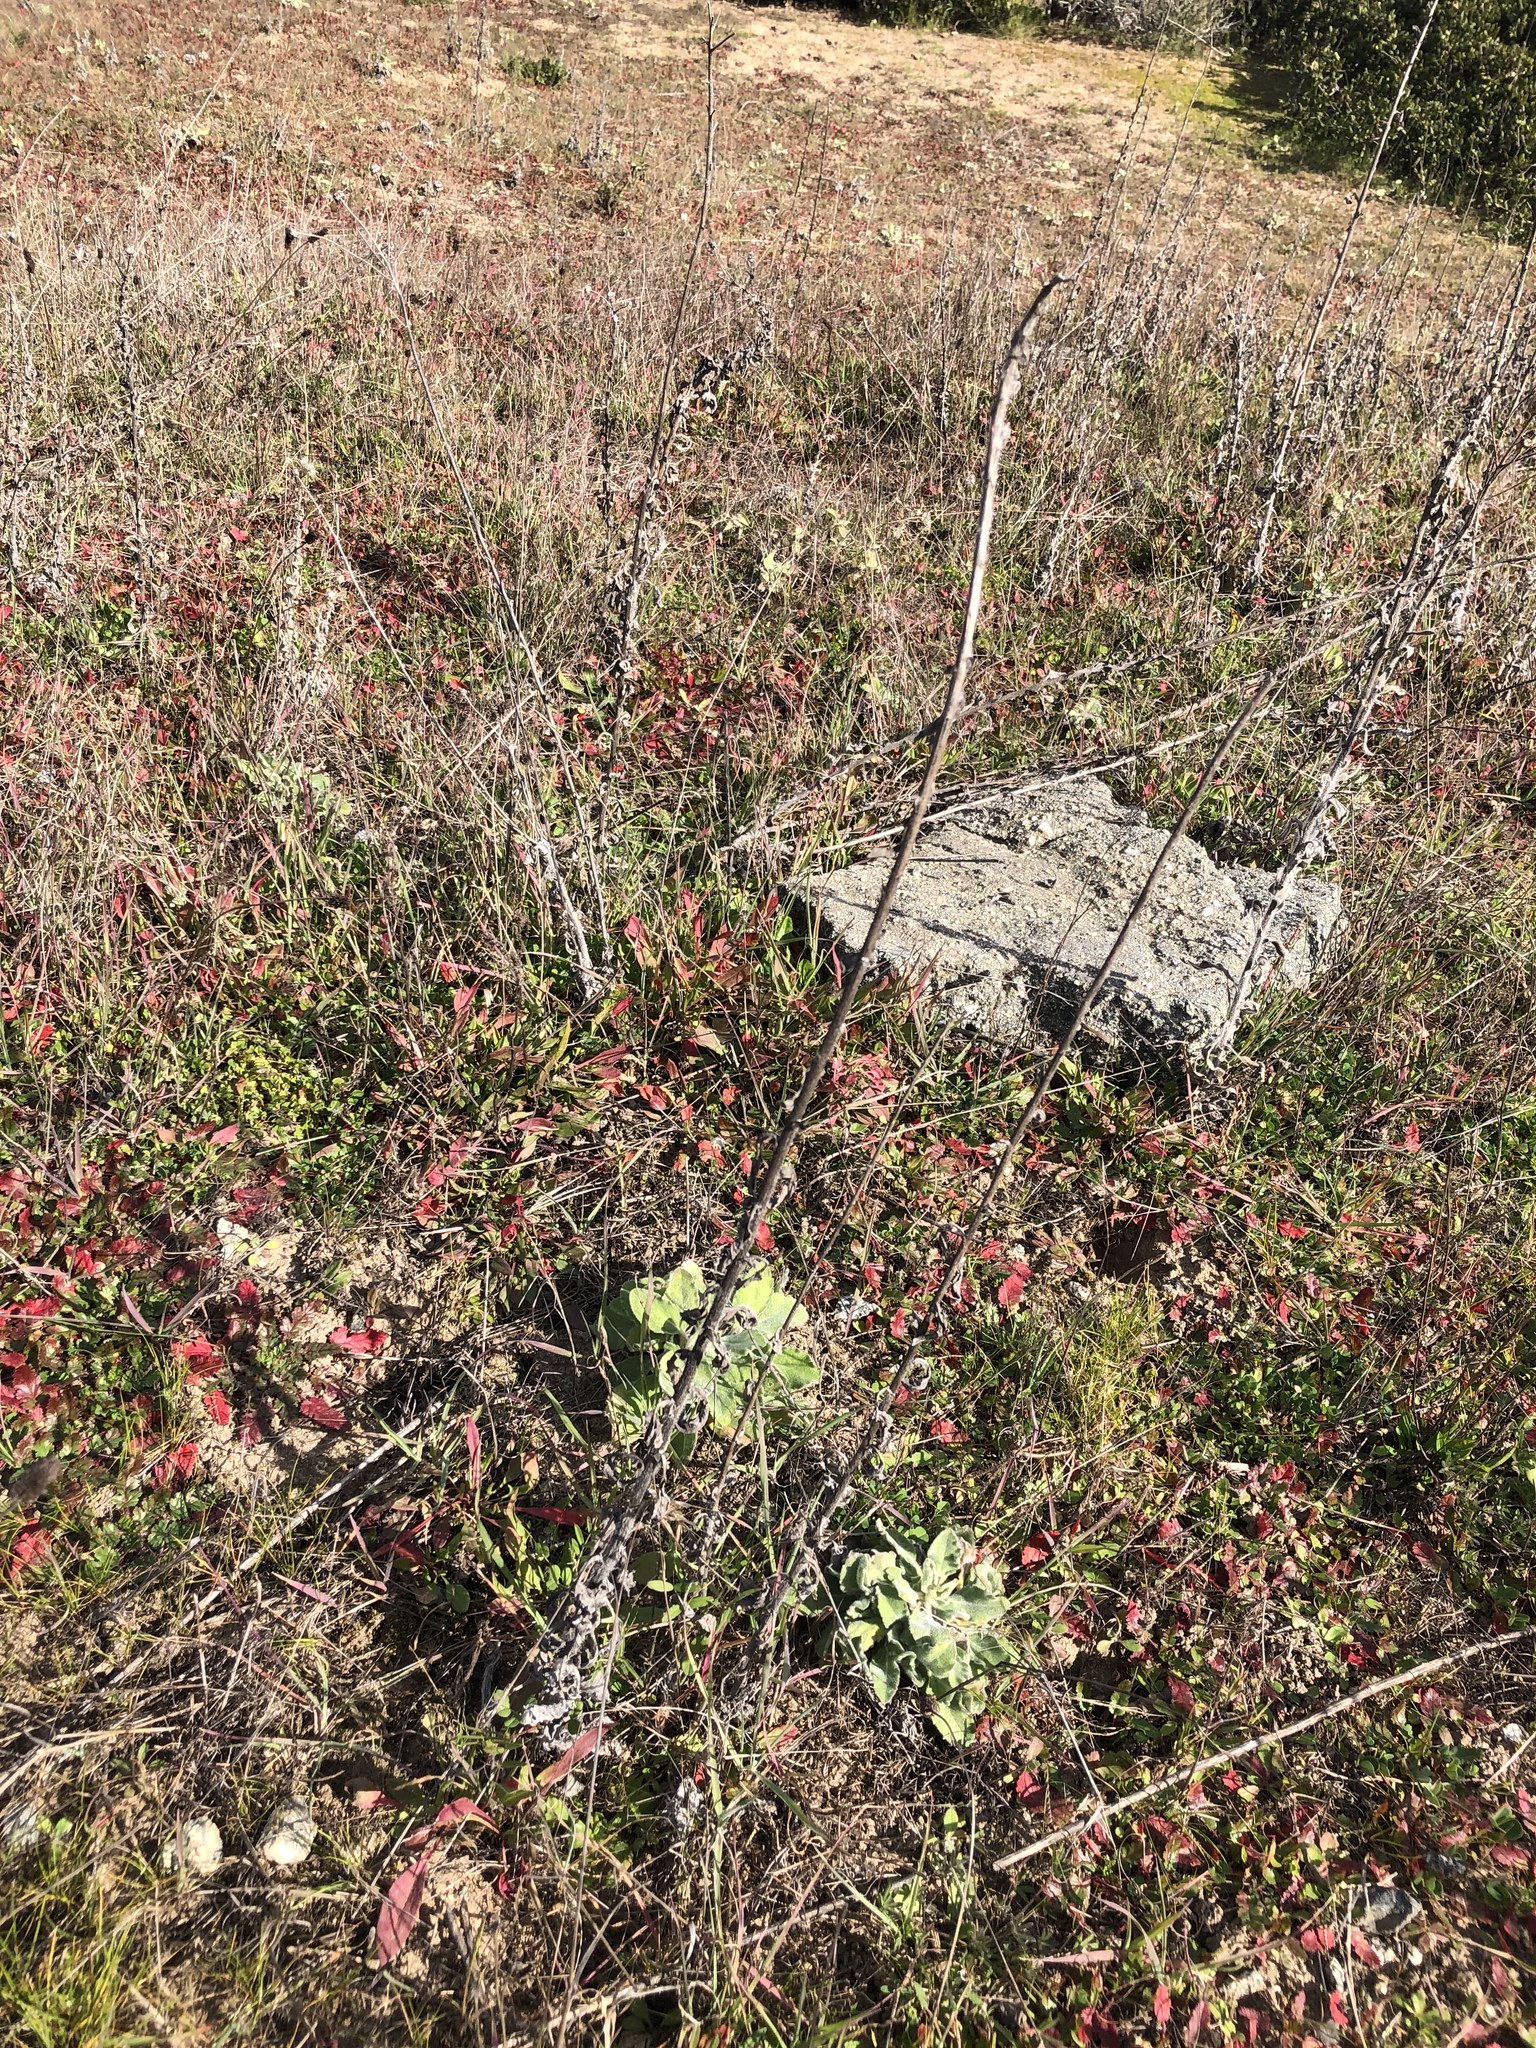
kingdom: Plantae
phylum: Tracheophyta
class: Magnoliopsida
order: Asterales
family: Asteraceae
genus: Heterotheca
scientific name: Heterotheca grandiflora
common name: Telegraphweed
